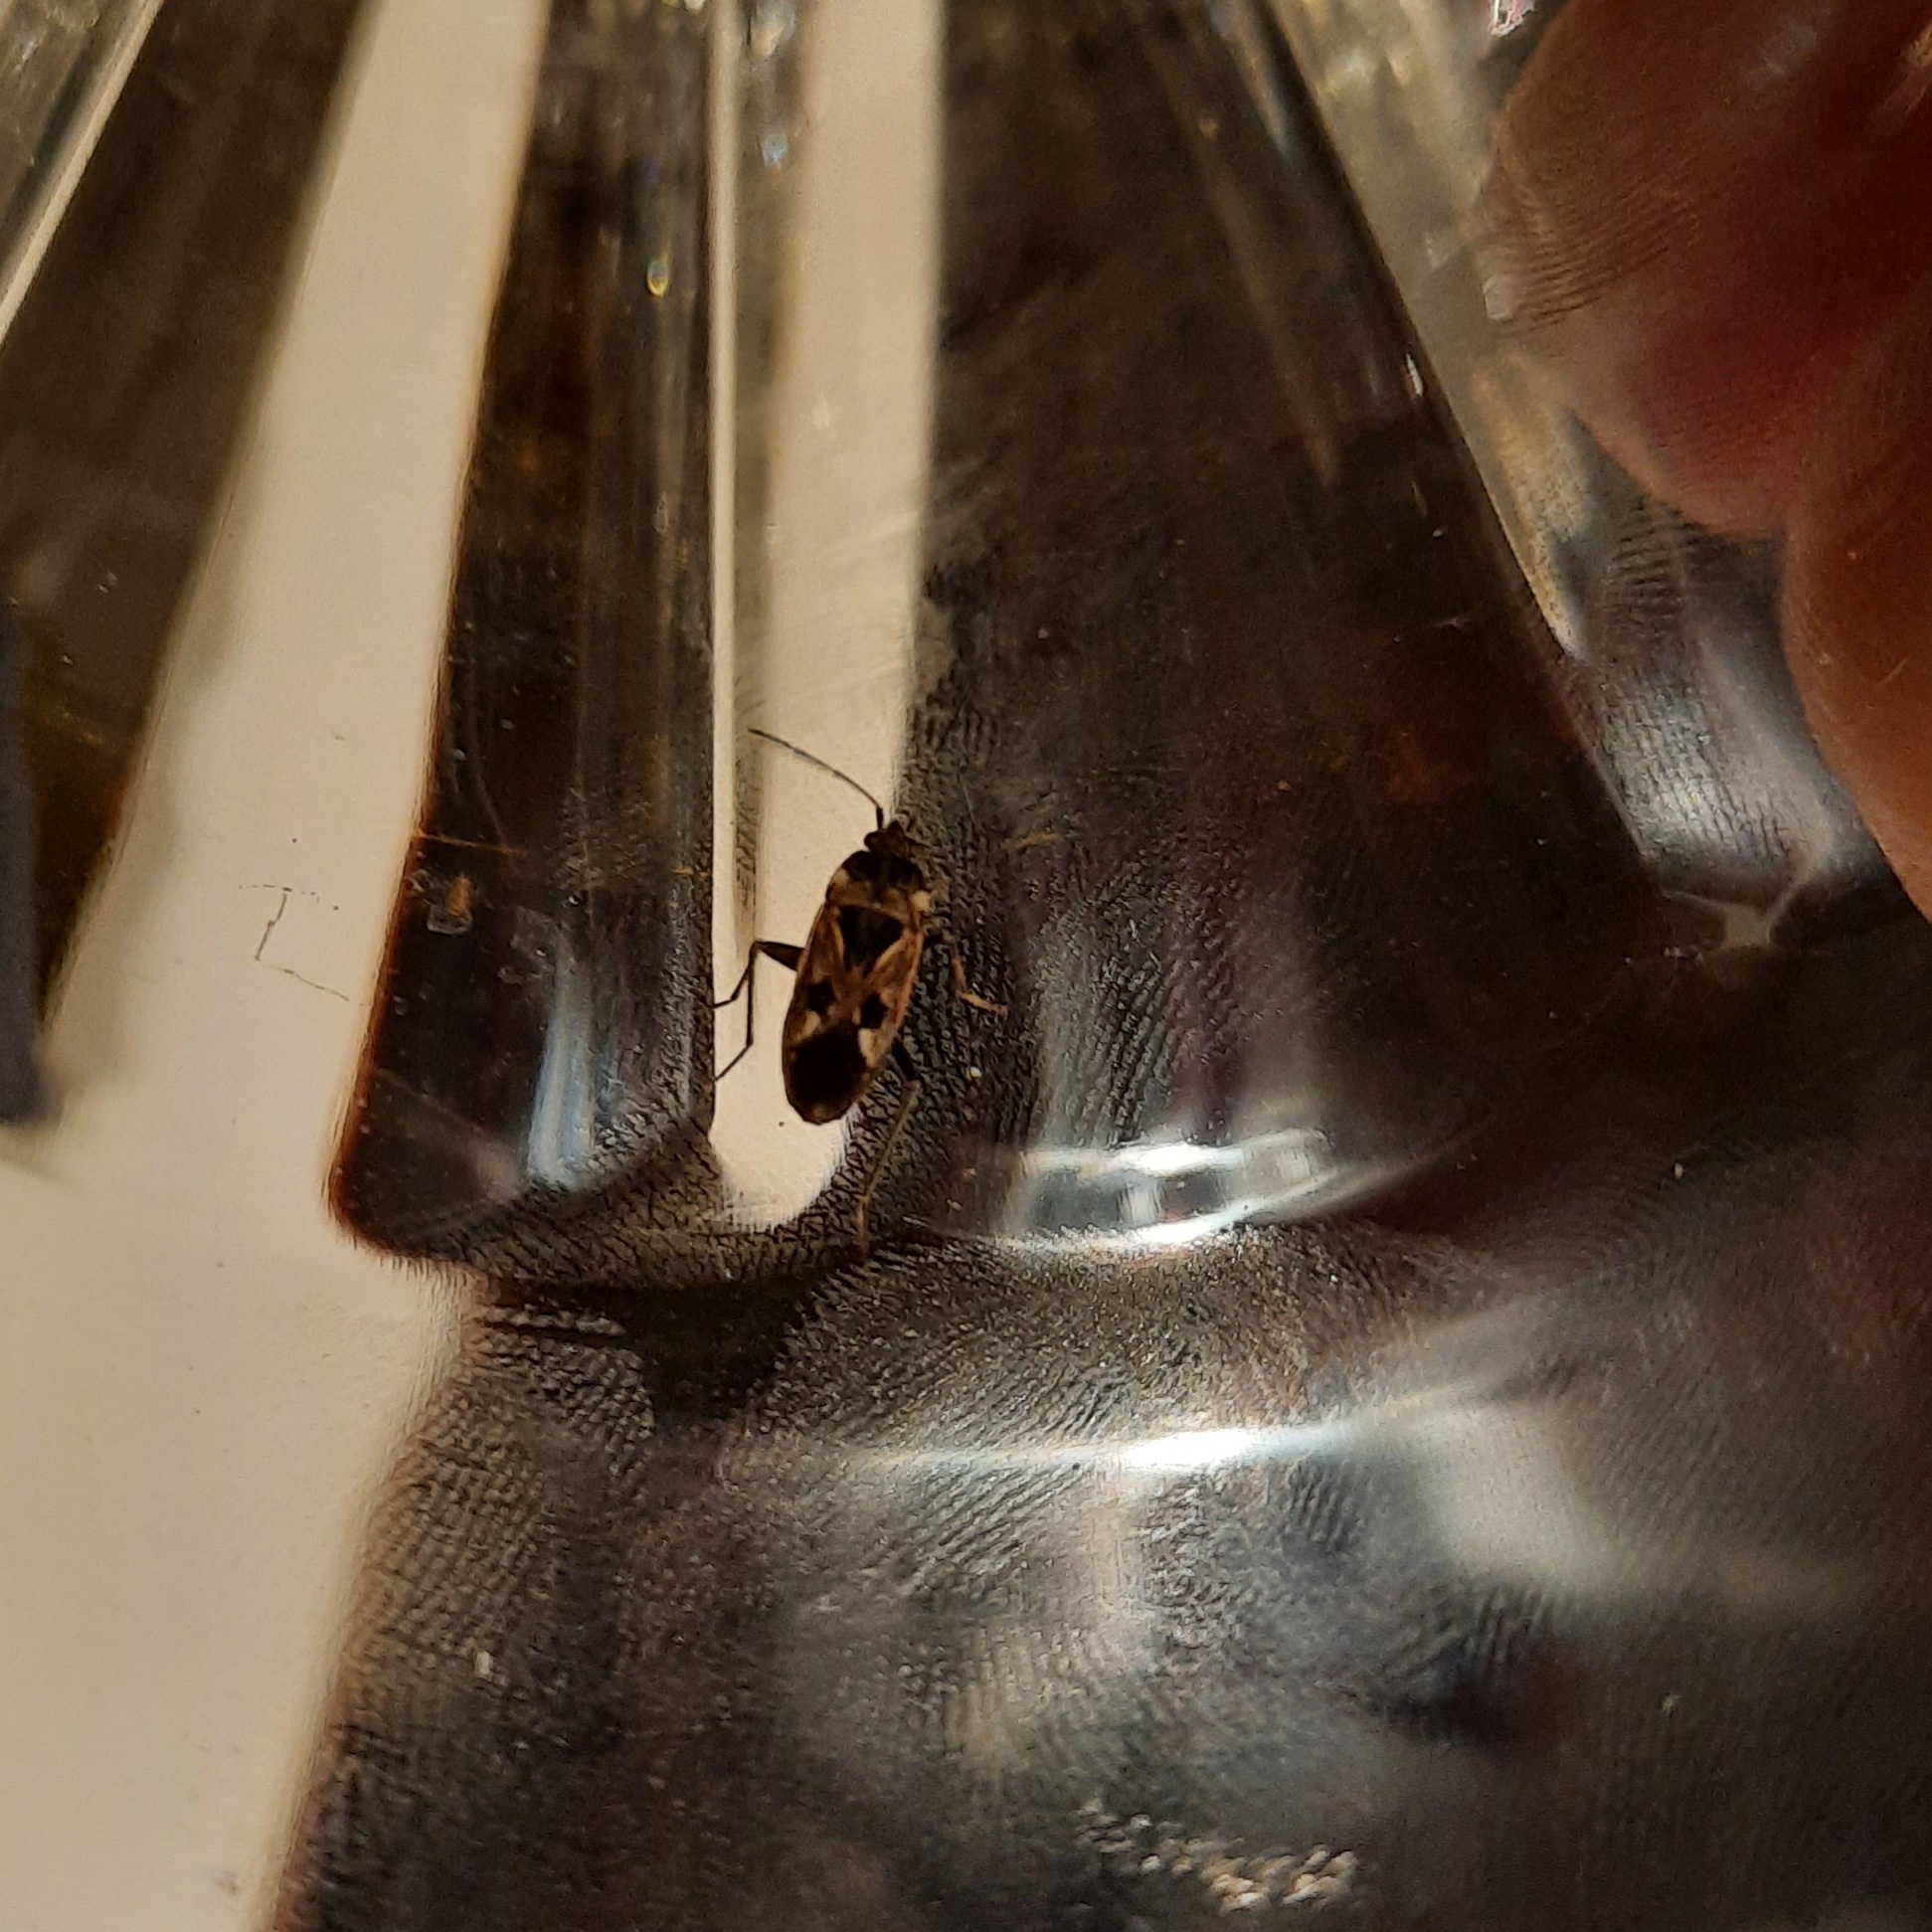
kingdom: Animalia
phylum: Arthropoda
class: Insecta
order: Hemiptera
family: Rhyparochromidae
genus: Rhyparochromus
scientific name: Rhyparochromus vulgaris
